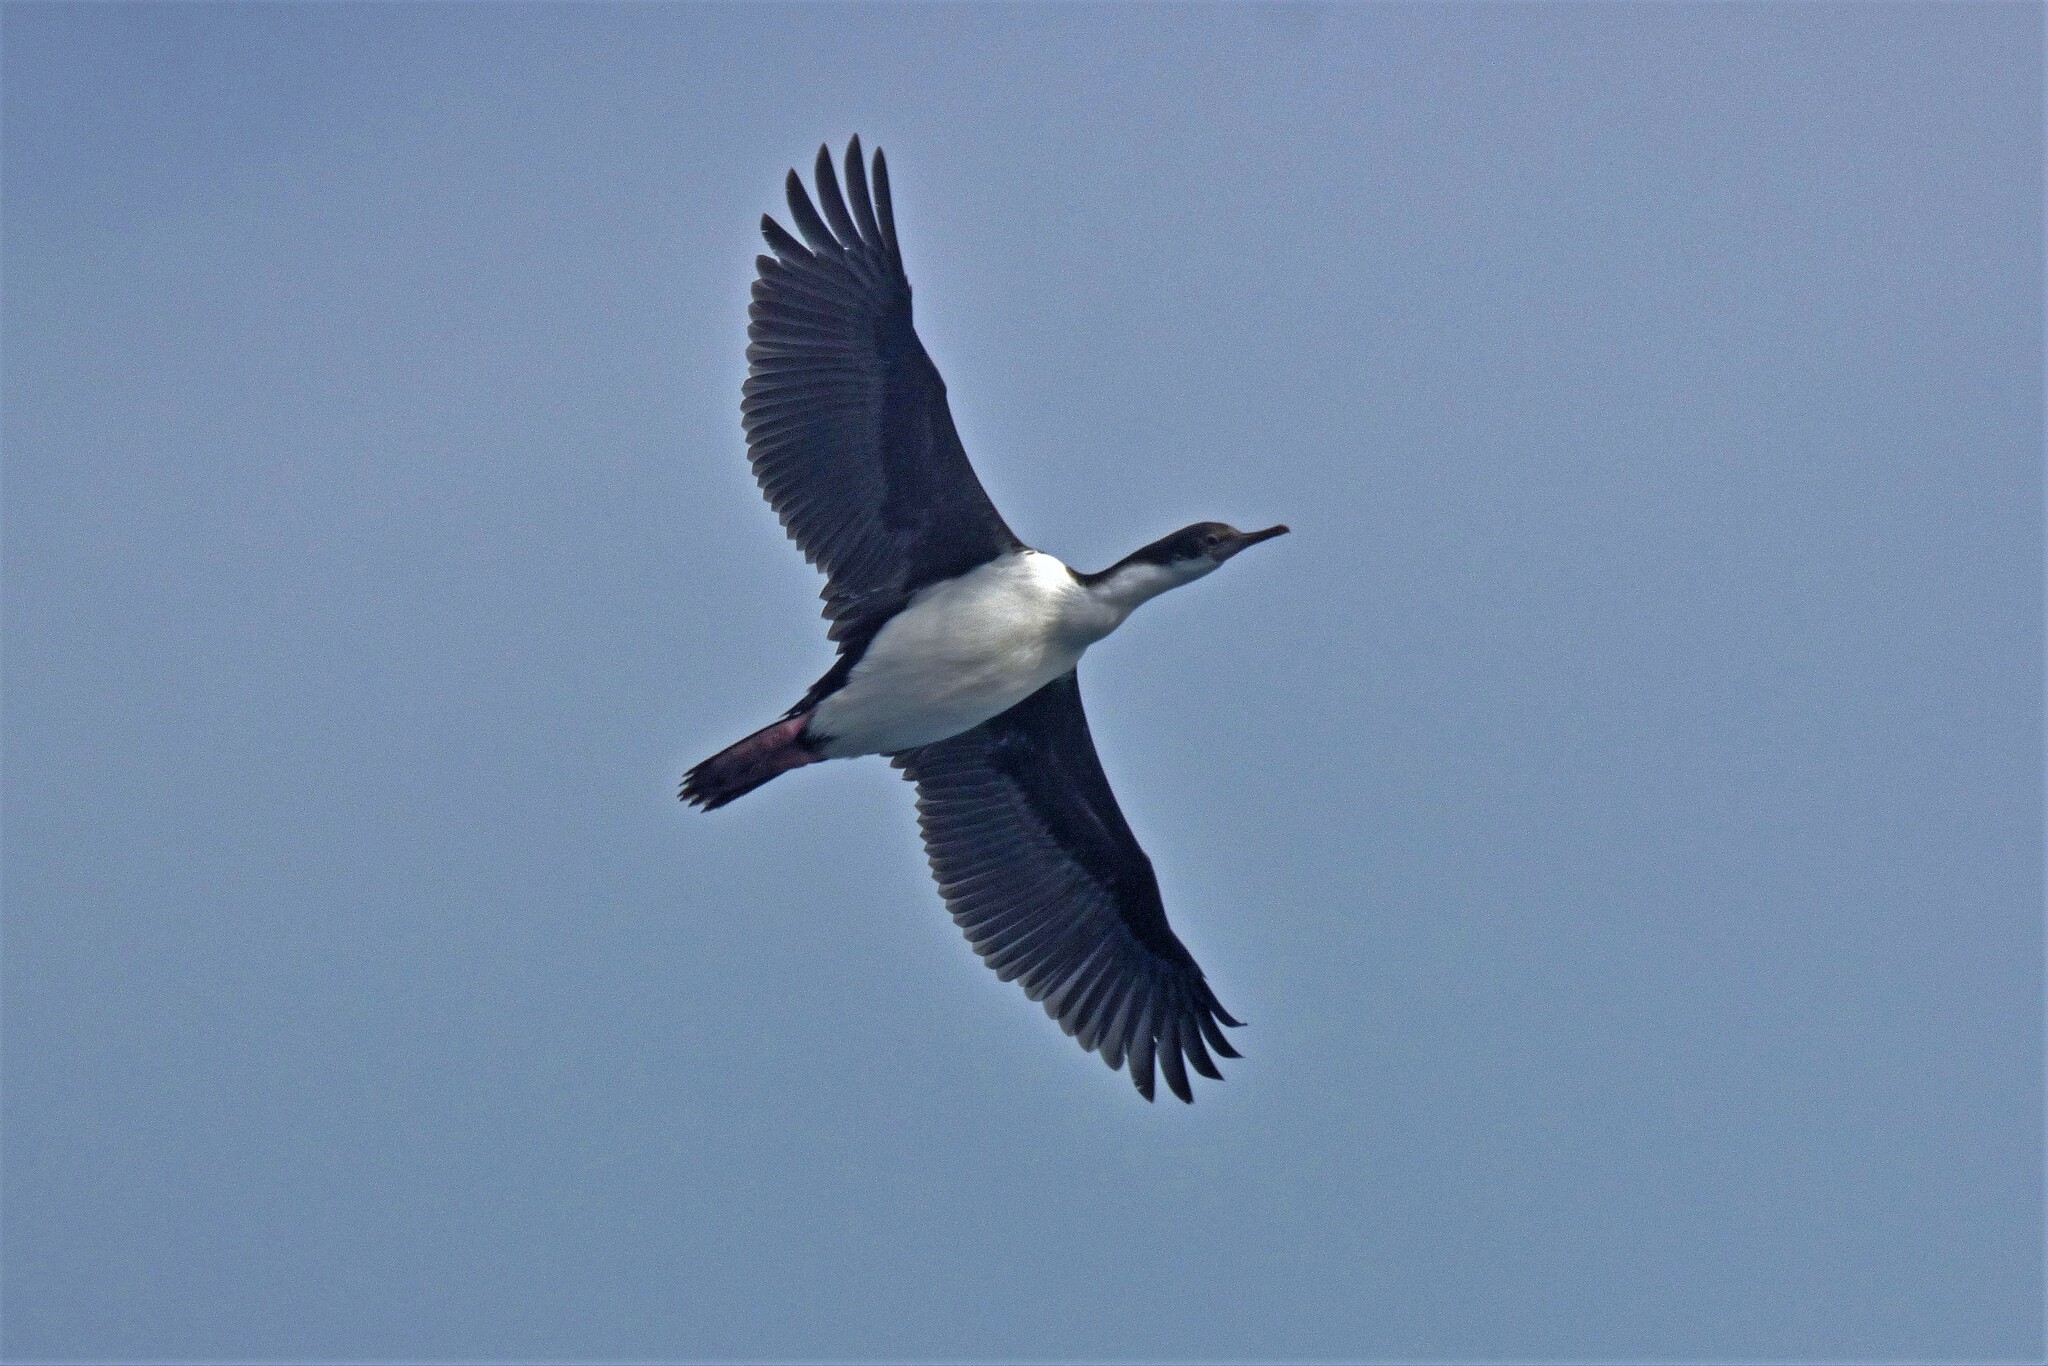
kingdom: Animalia
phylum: Chordata
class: Aves
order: Suliformes
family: Phalacrocoracidae
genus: Leucocarbo
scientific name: Leucocarbo atriceps
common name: Imperial shag
